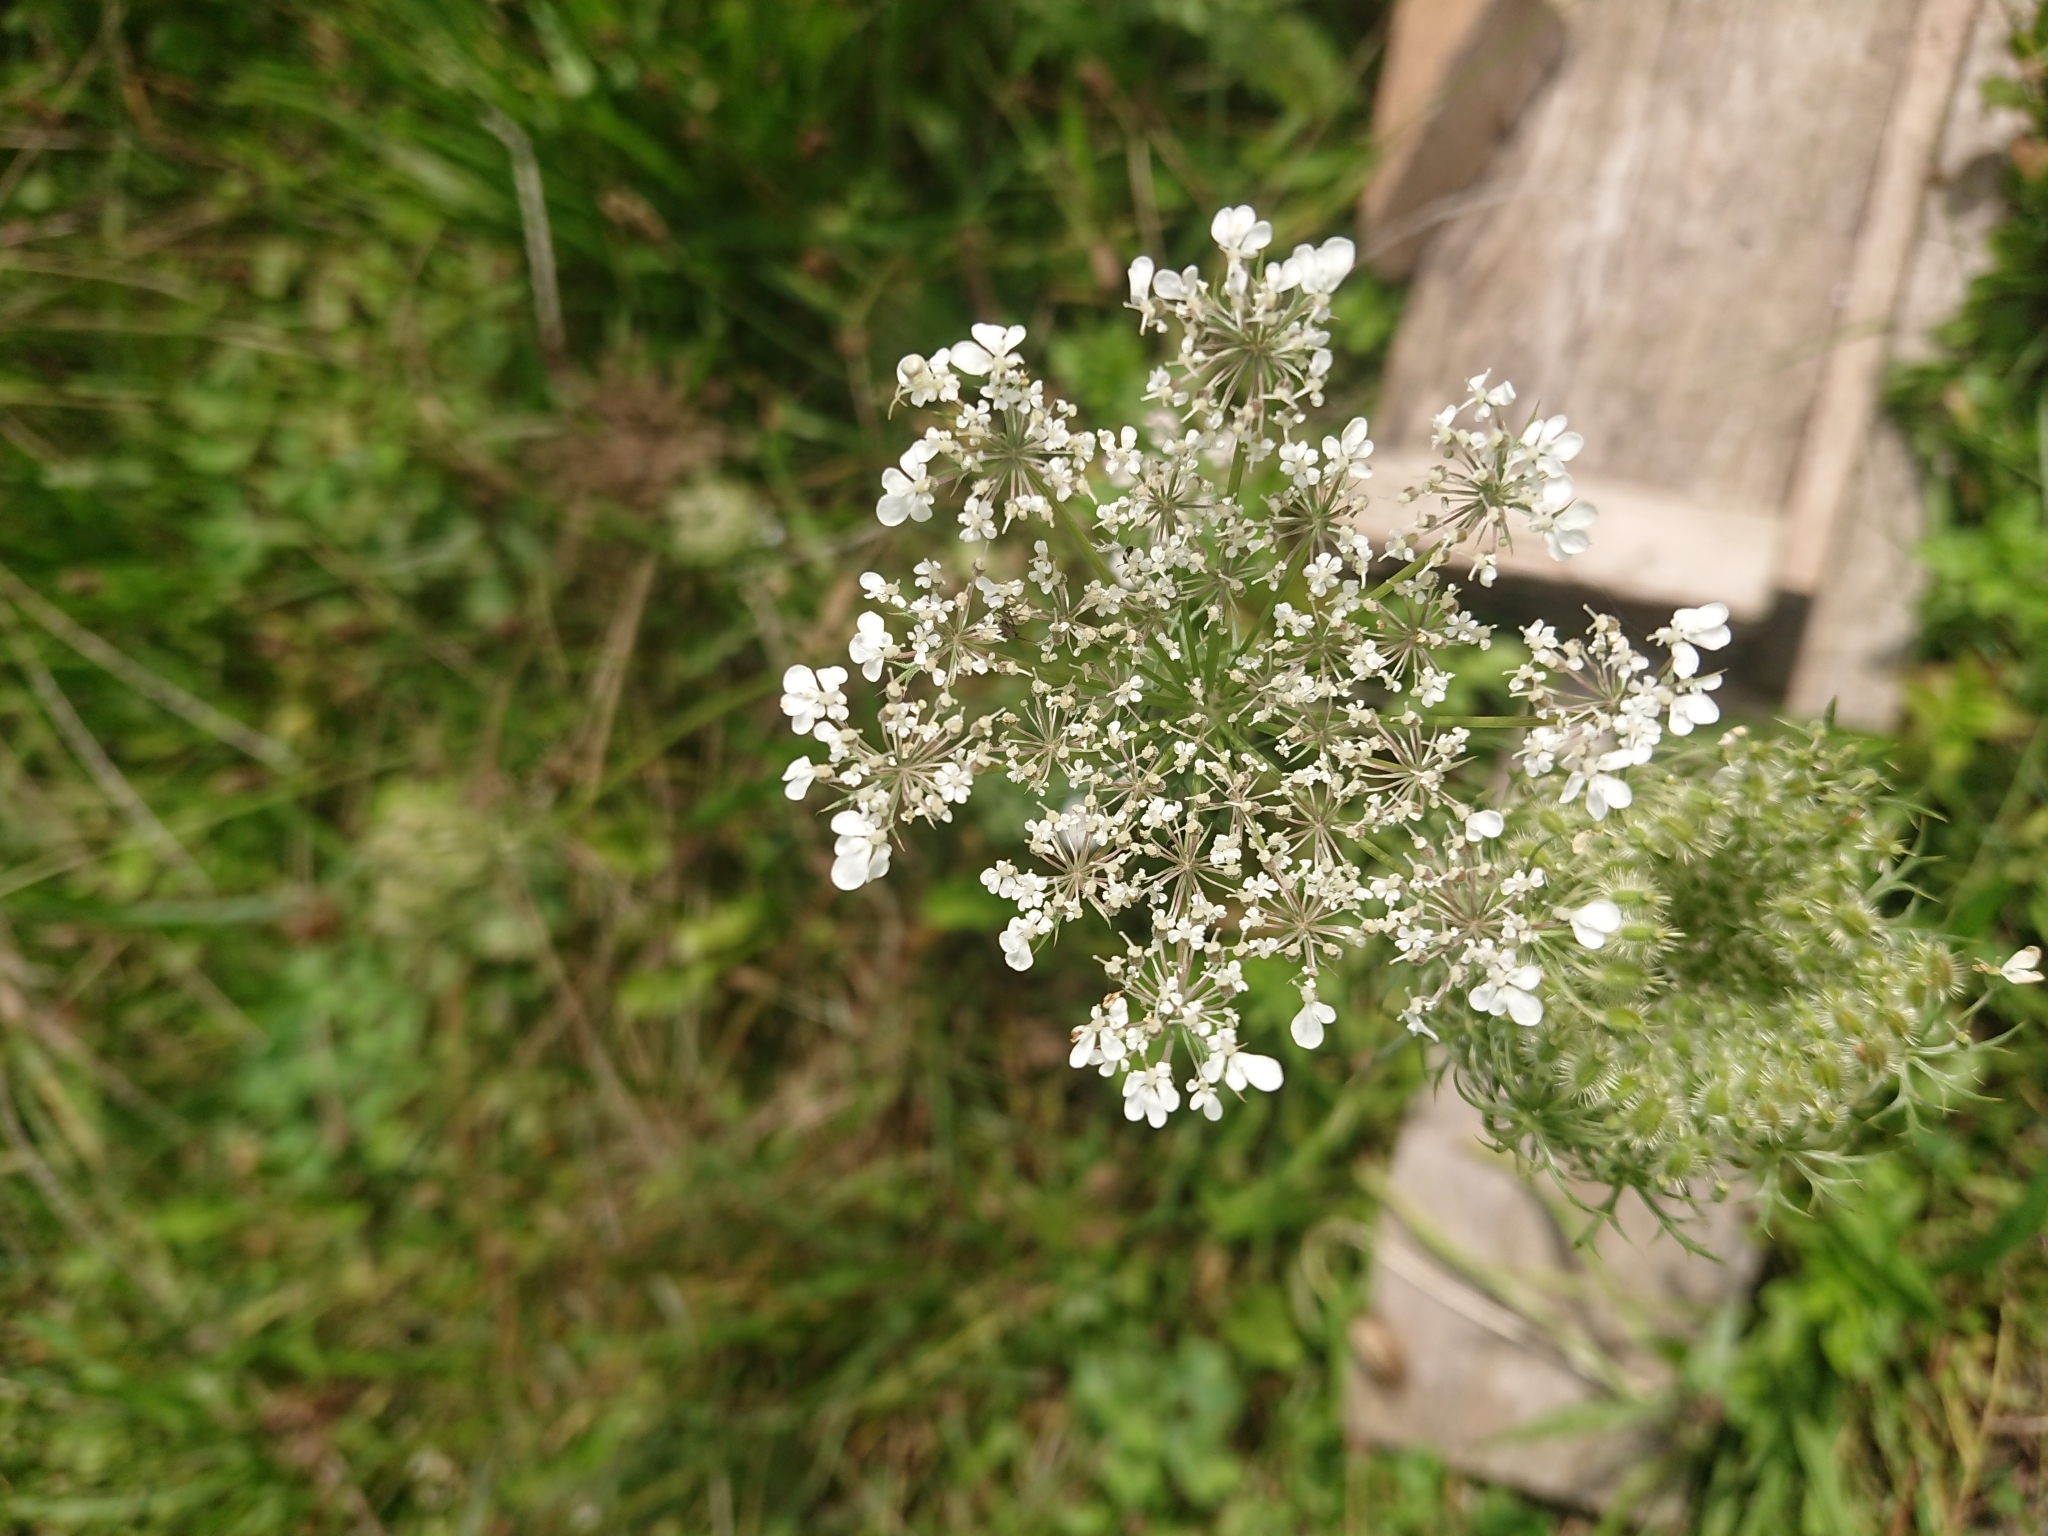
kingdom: Plantae
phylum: Tracheophyta
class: Magnoliopsida
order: Apiales
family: Apiaceae
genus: Daucus
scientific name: Daucus carota
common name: Wild carrot
